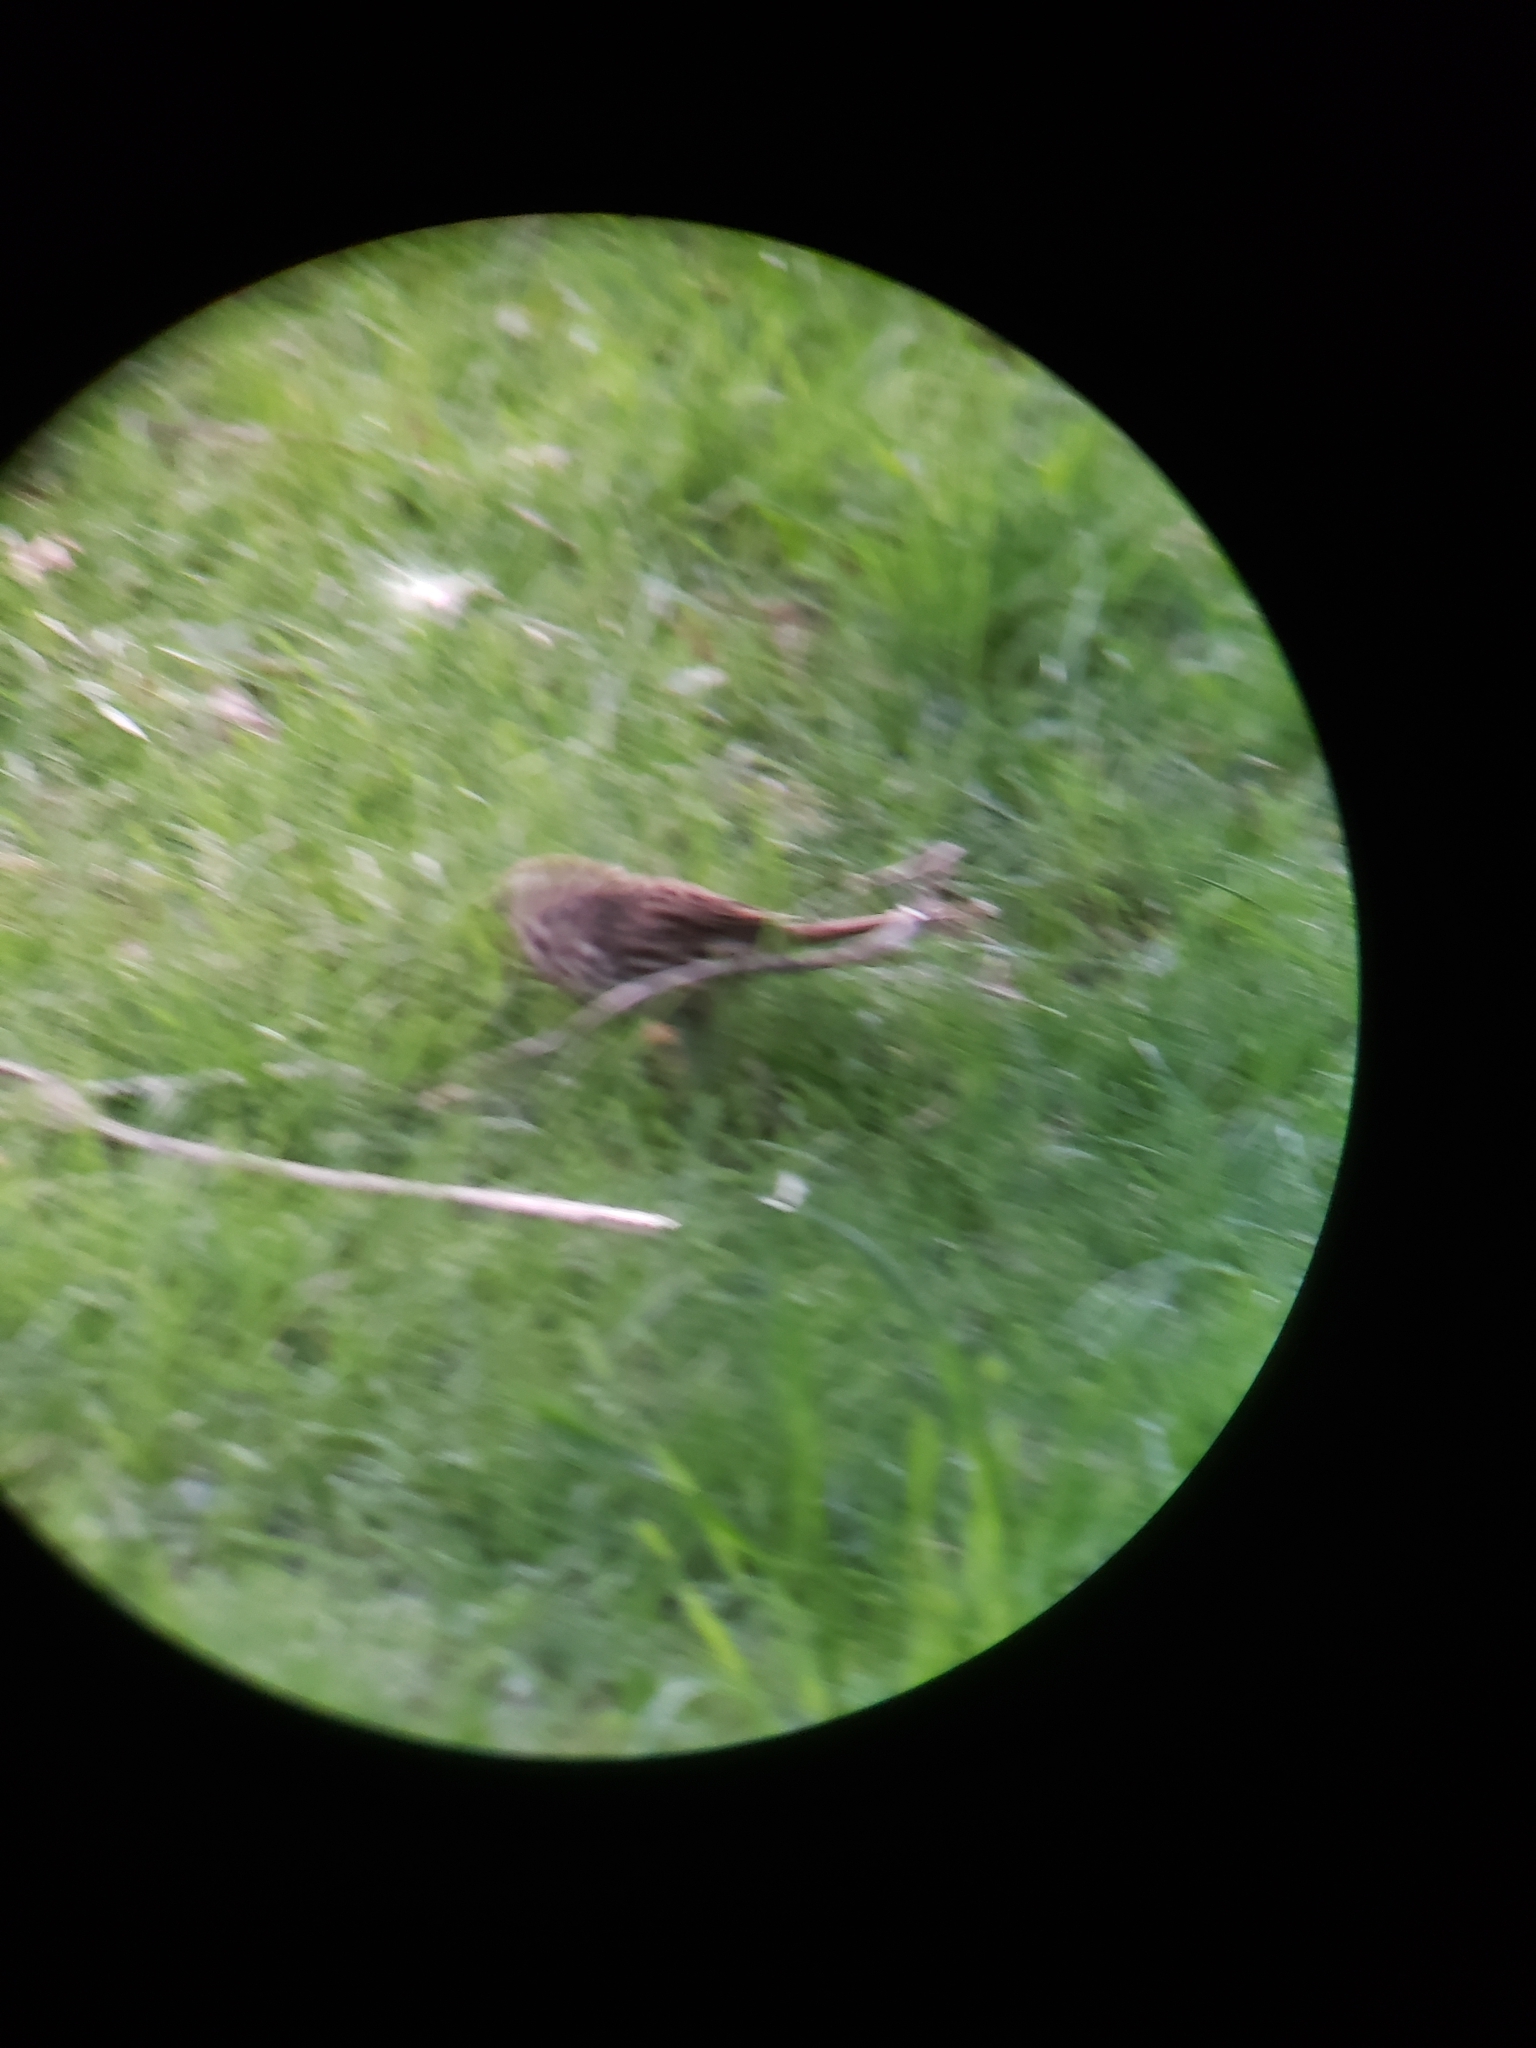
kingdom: Animalia
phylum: Chordata
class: Aves
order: Passeriformes
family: Passerellidae
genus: Melospiza
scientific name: Melospiza melodia
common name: Song sparrow
